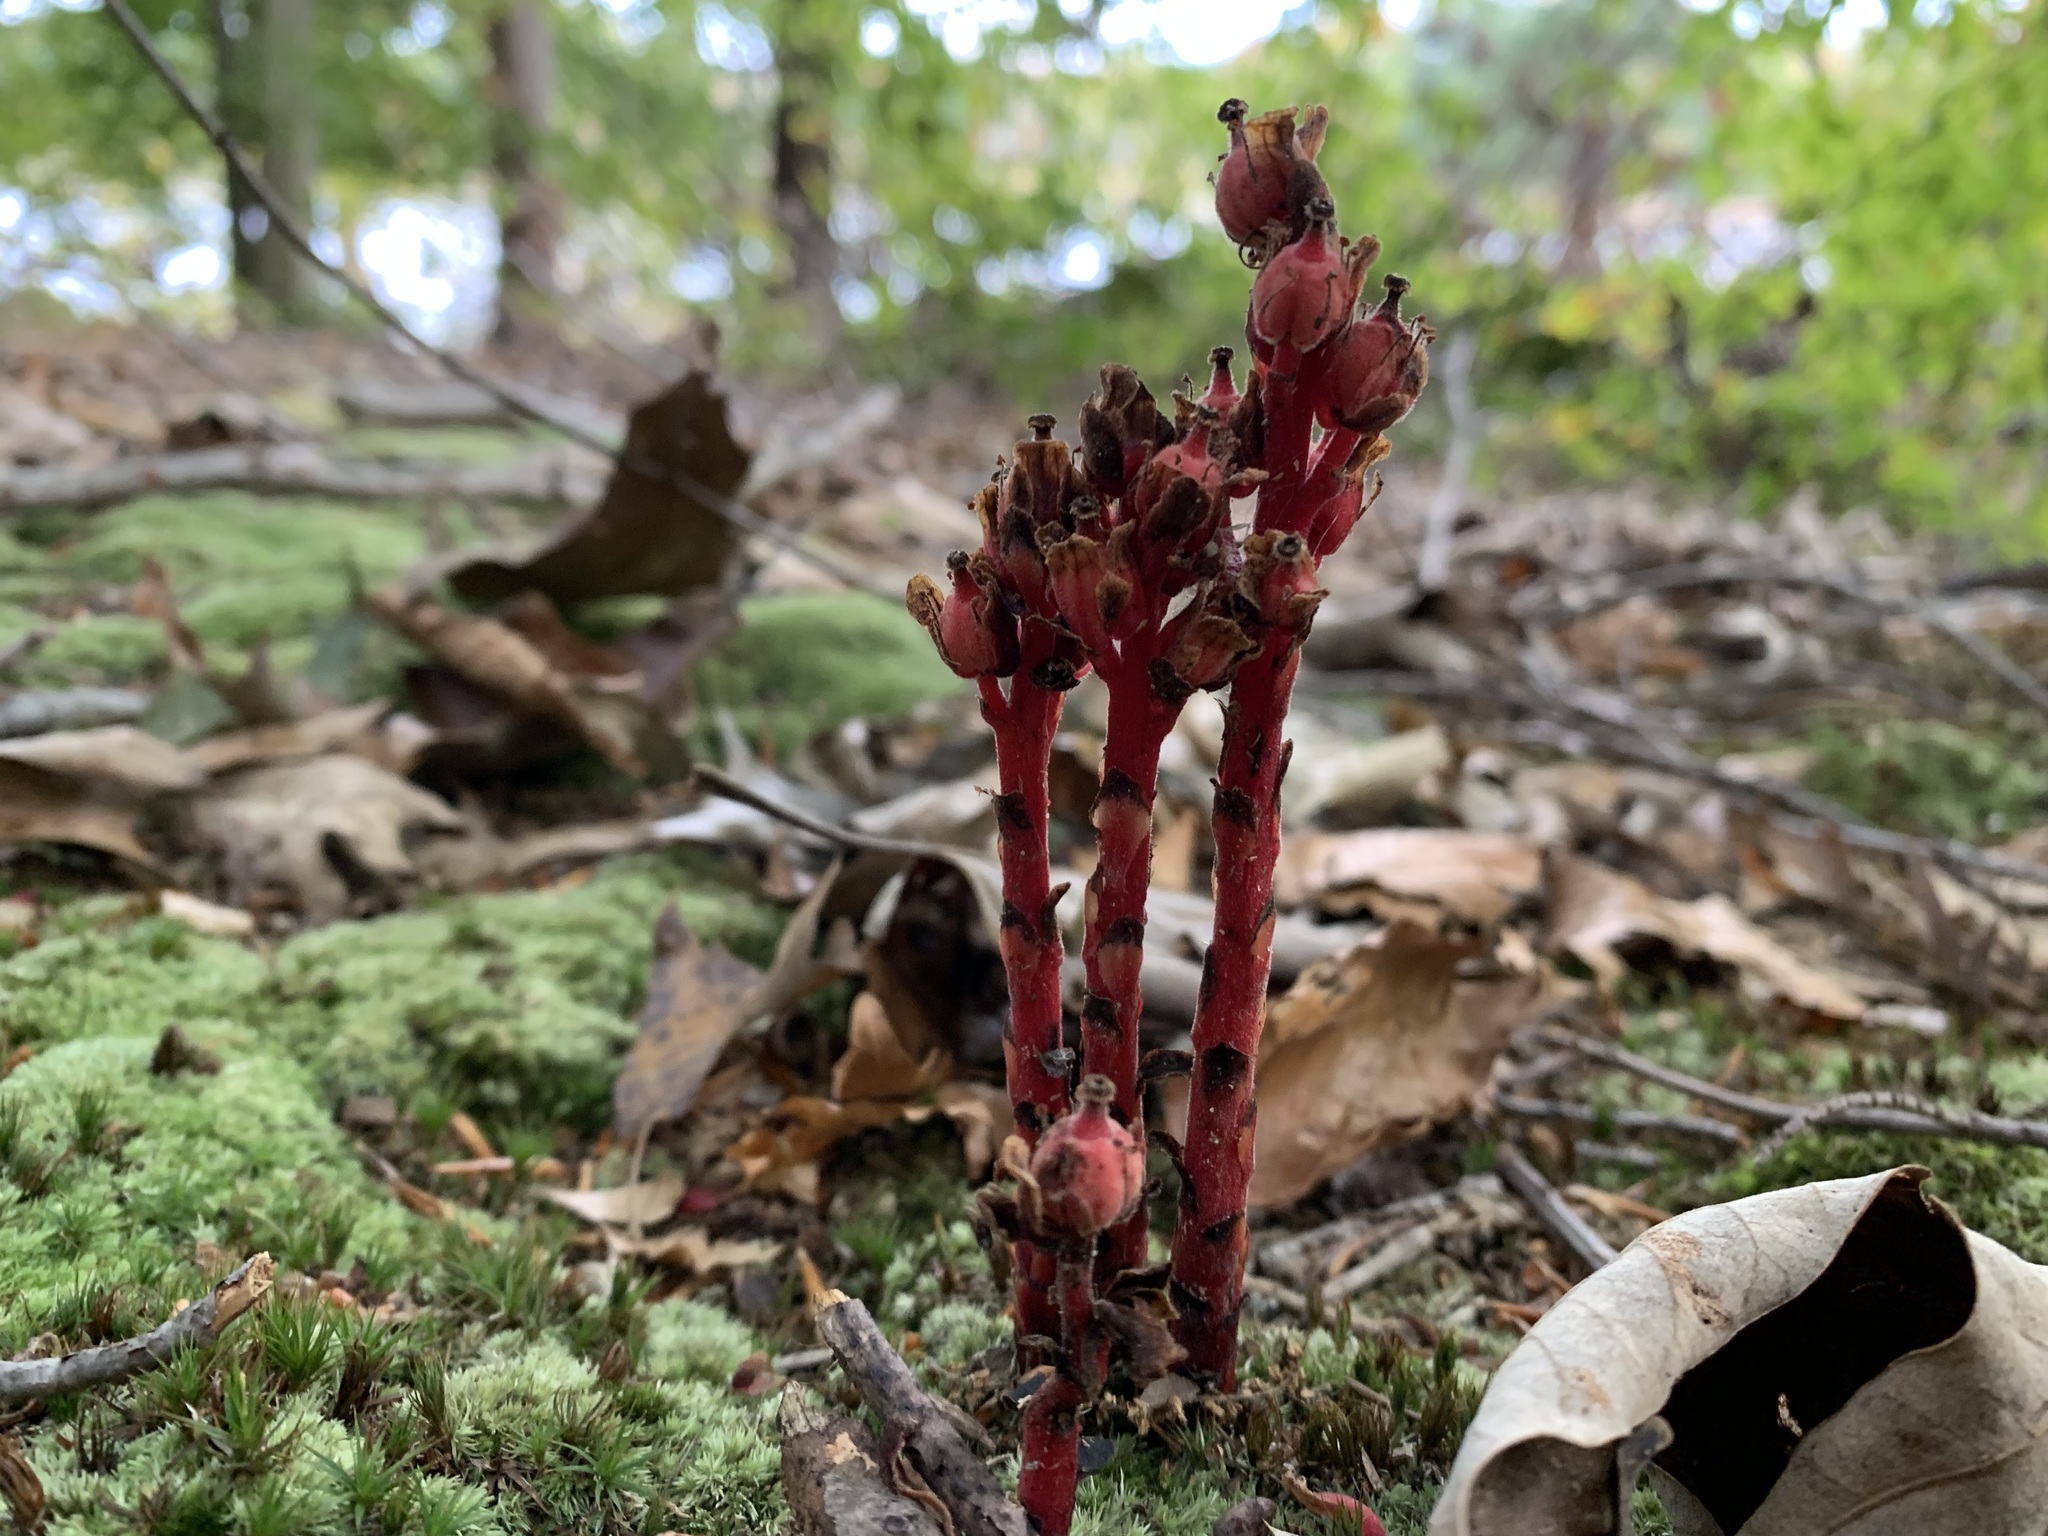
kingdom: Plantae
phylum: Tracheophyta
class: Magnoliopsida
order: Ericales
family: Ericaceae
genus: Hypopitys
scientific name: Hypopitys monotropa
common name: Yellow bird's-nest
